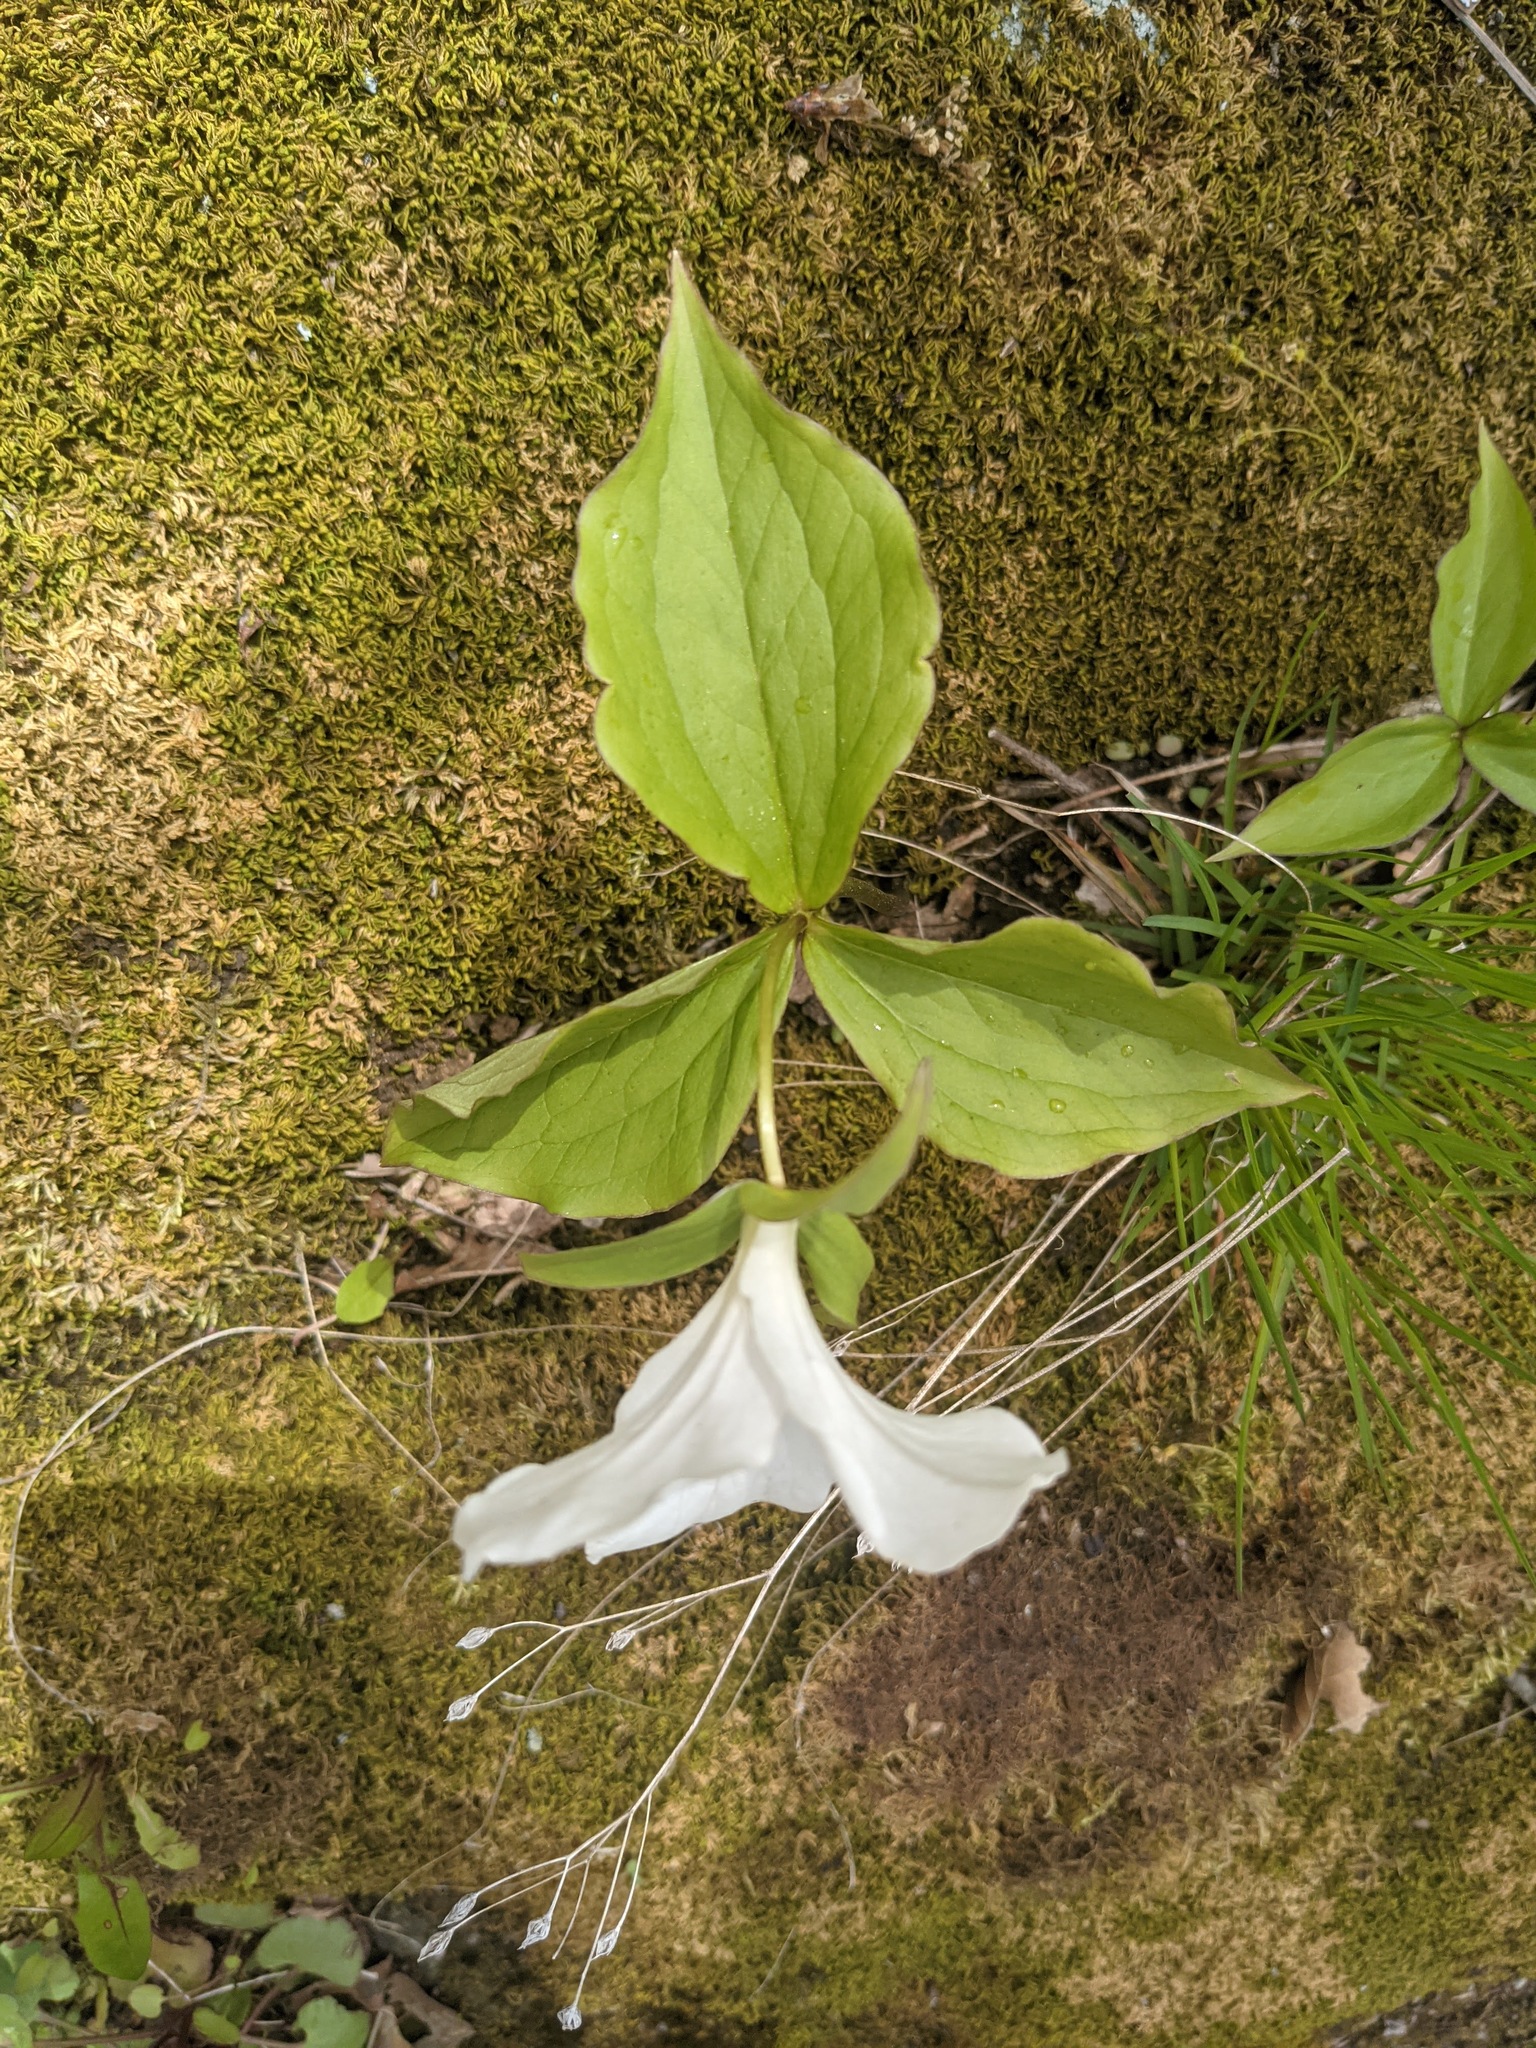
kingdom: Plantae
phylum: Tracheophyta
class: Liliopsida
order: Liliales
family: Melanthiaceae
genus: Trillium
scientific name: Trillium grandiflorum
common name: Great white trillium
